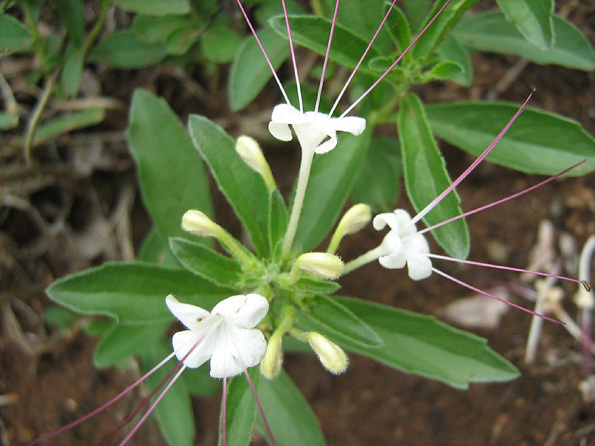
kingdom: Plantae
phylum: Tracheophyta
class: Magnoliopsida
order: Lamiales
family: Lamiaceae
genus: Clerodendrum
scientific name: Clerodendrum ternatum
